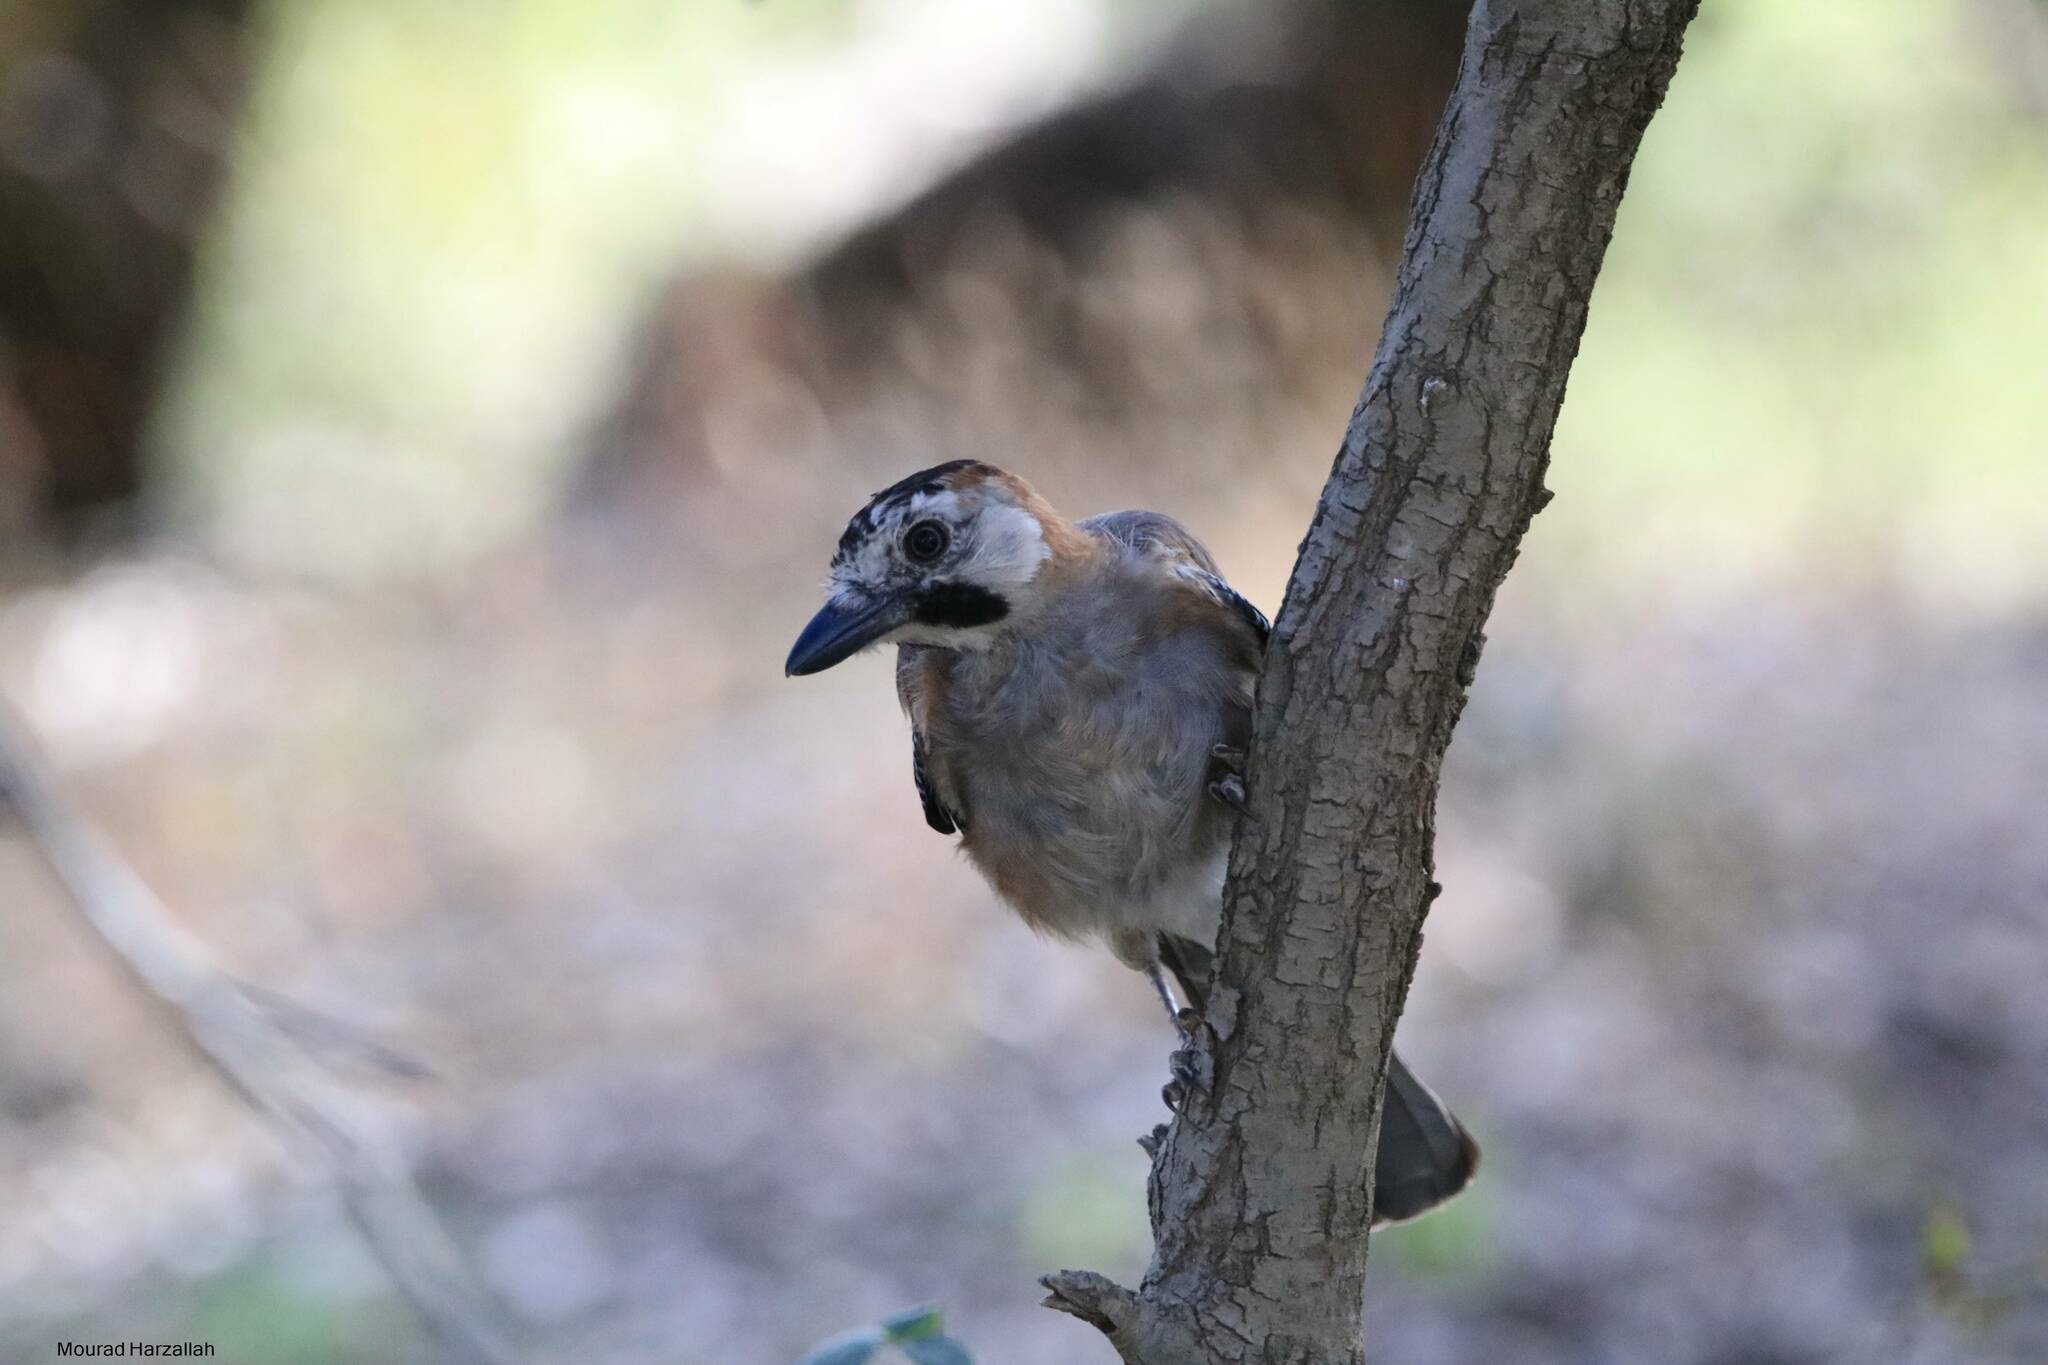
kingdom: Animalia
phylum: Chordata
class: Aves
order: Passeriformes
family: Corvidae
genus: Garrulus
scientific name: Garrulus glandarius
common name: Eurasian jay
